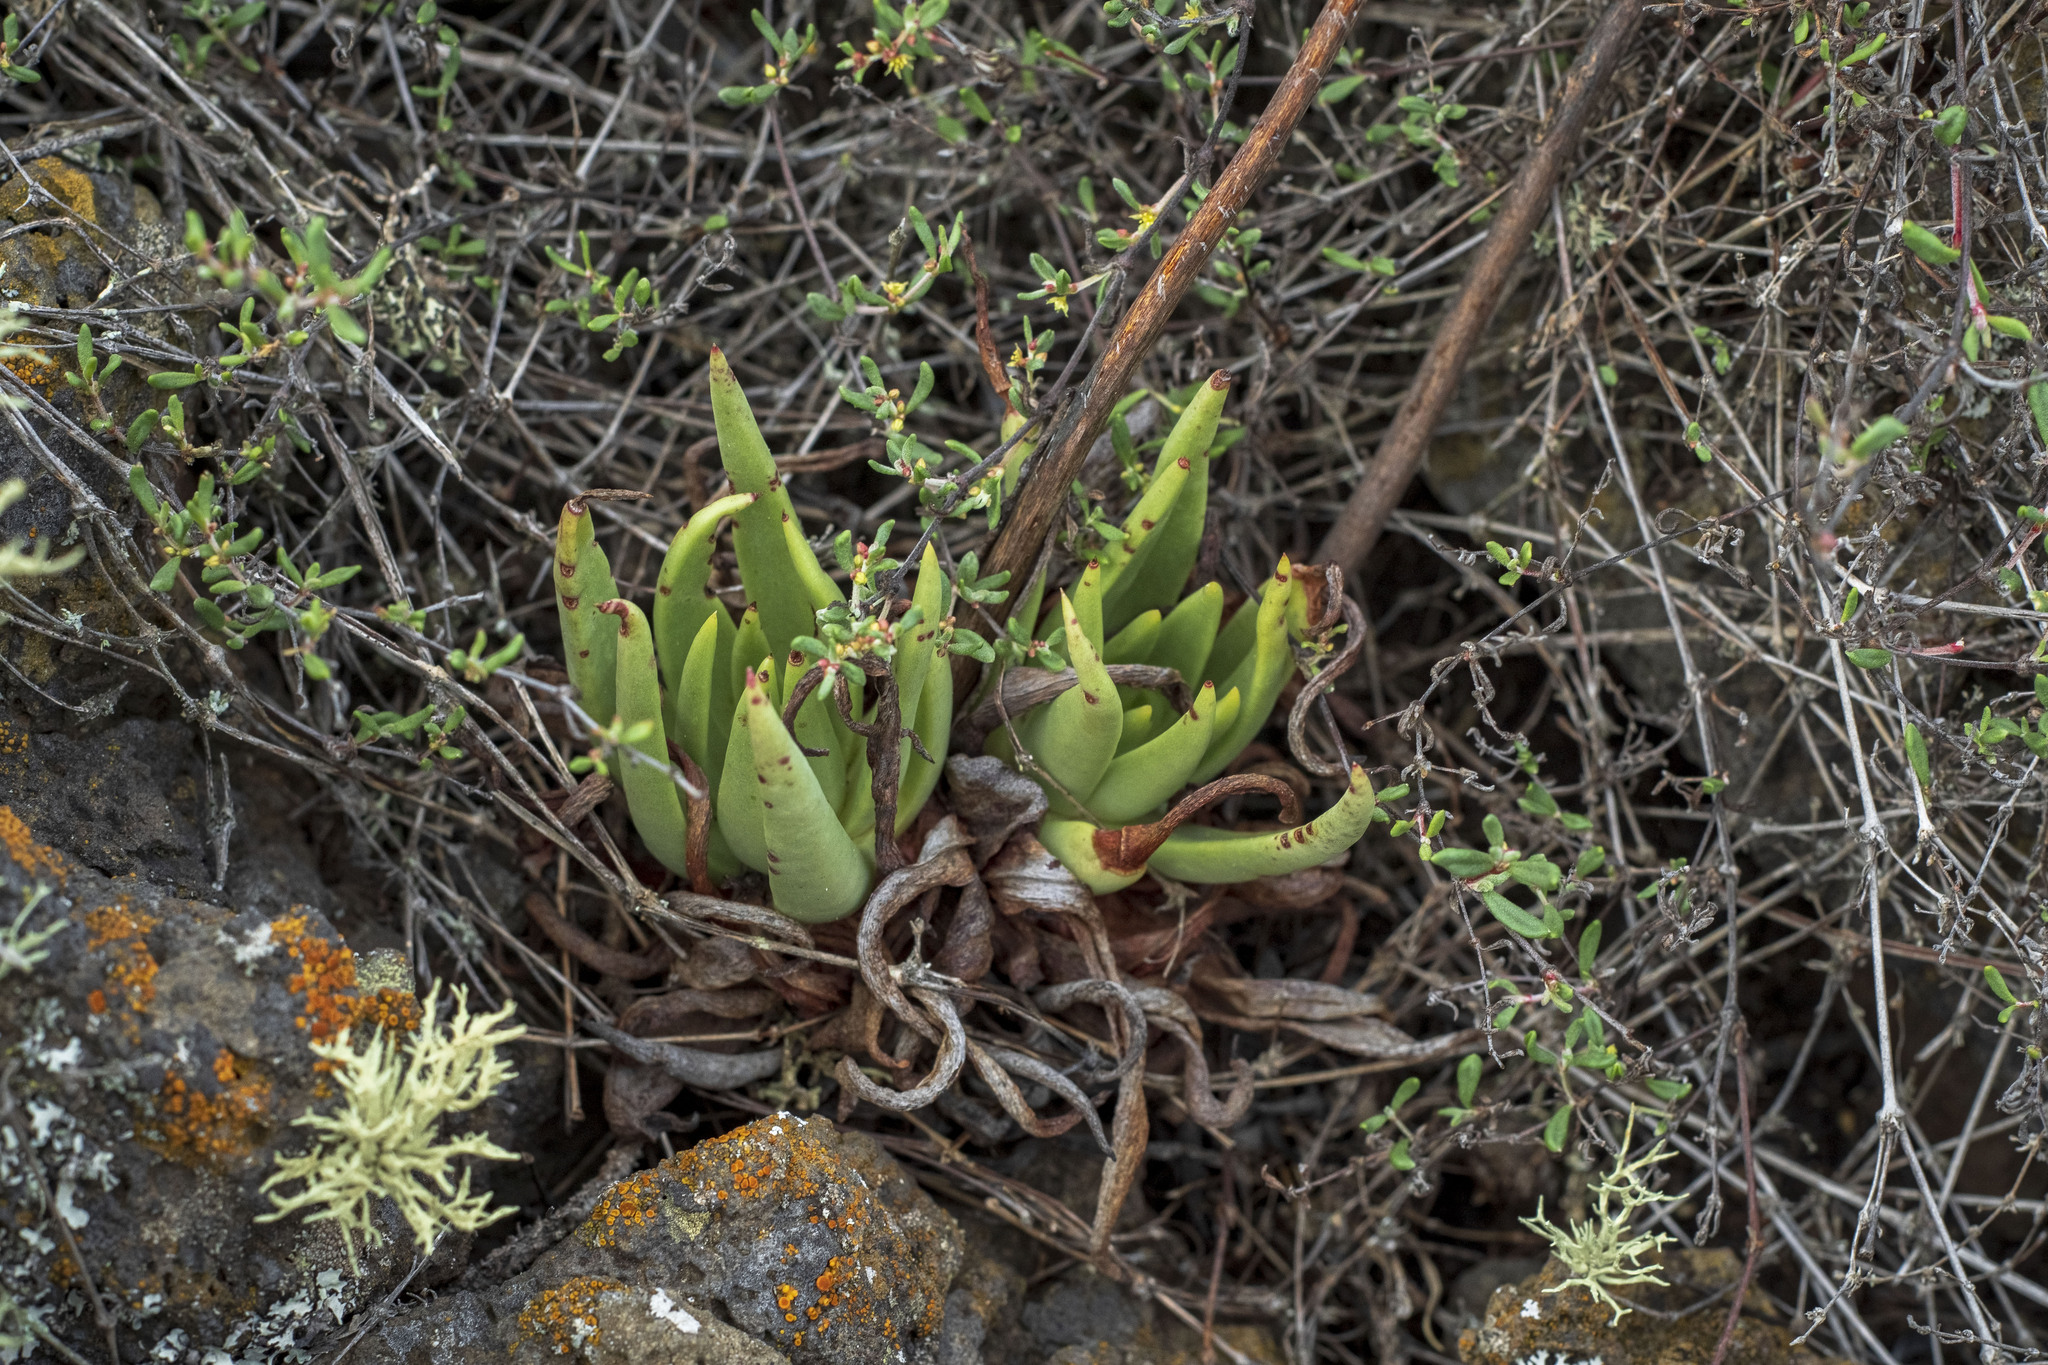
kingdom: Plantae
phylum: Tracheophyta
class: Magnoliopsida
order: Saxifragales
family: Crassulaceae
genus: Dudleya
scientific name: Dudleya cultrata
